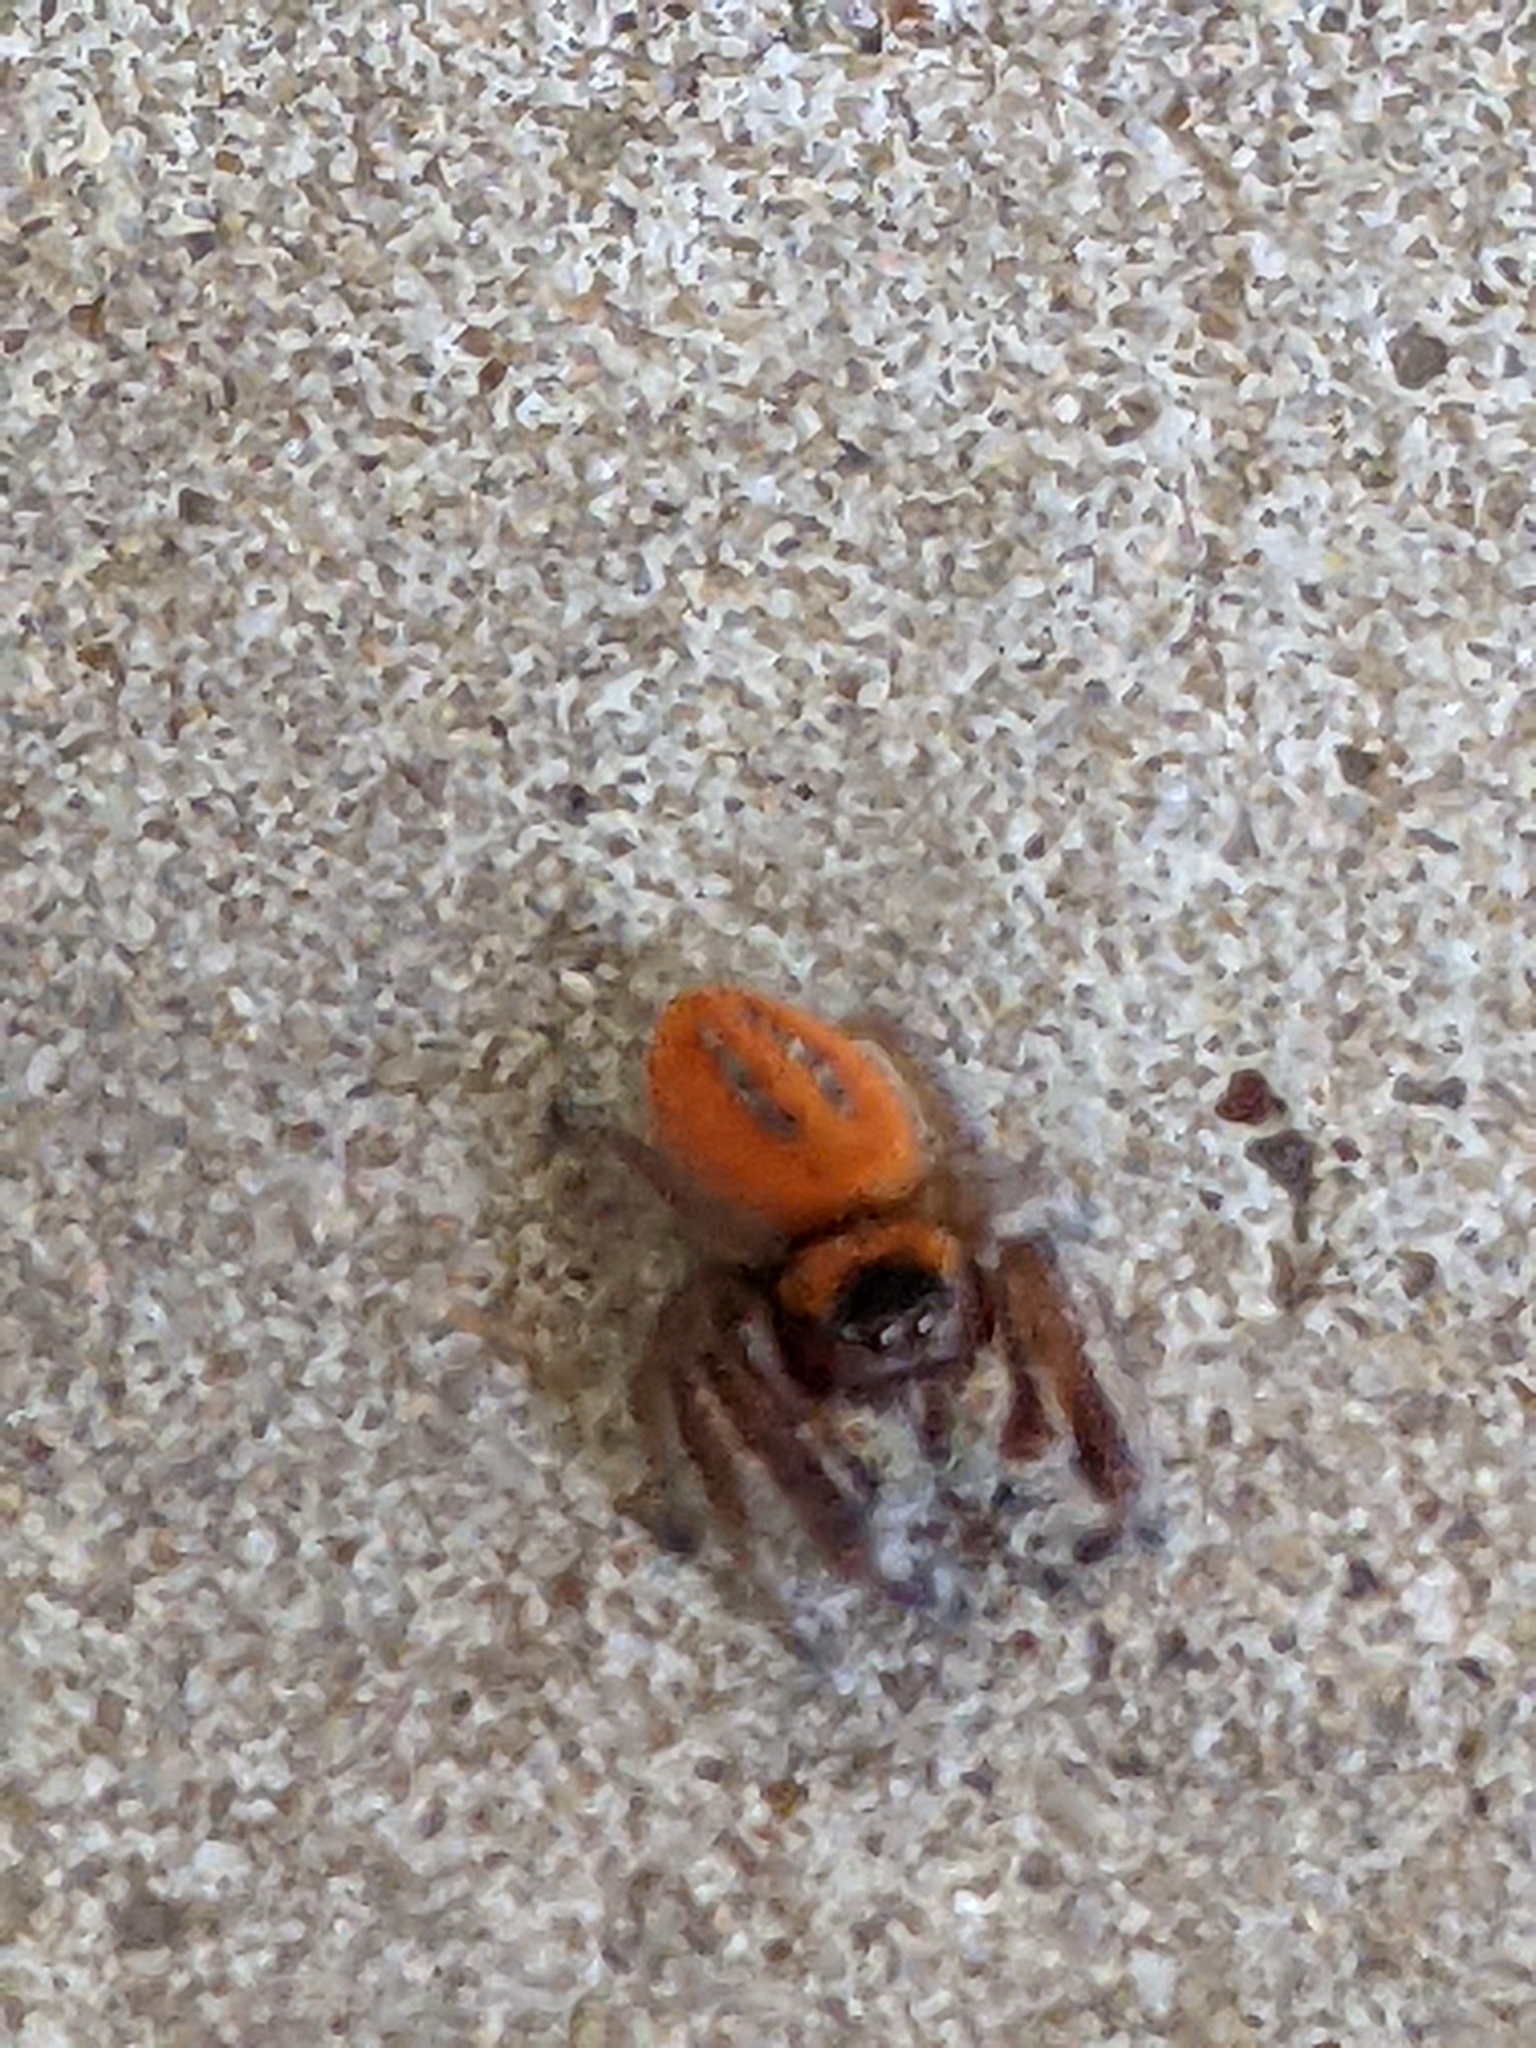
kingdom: Animalia
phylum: Arthropoda
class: Arachnida
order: Araneae
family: Salticidae
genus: Phidippus
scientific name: Phidippus pius
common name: Jumping spiders
